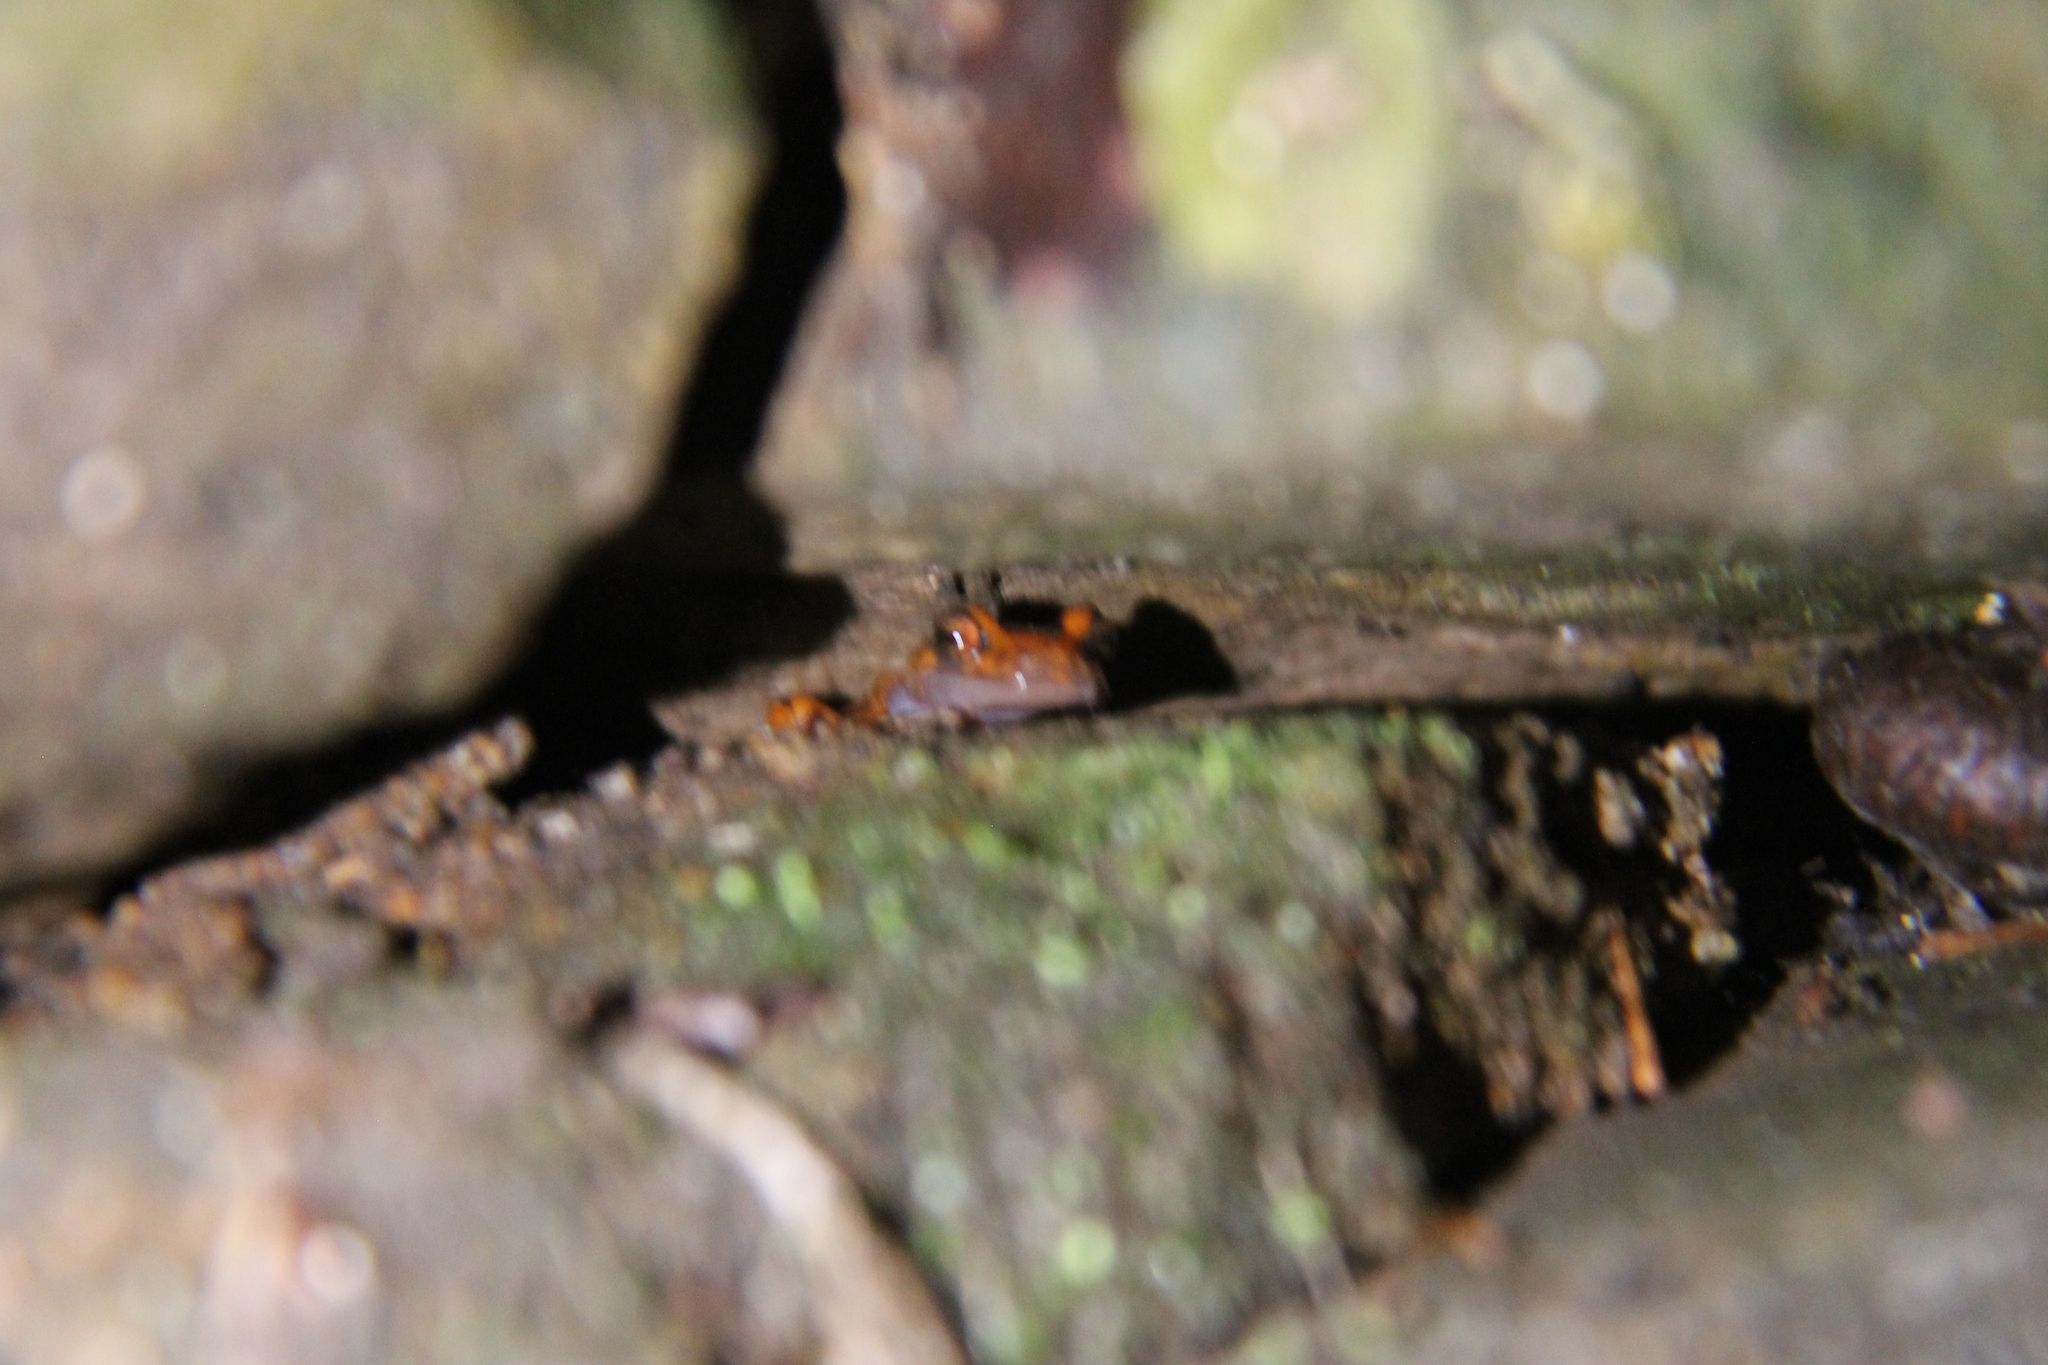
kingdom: Animalia
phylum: Chordata
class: Amphibia
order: Caudata
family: Plethodontidae
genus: Eurycea
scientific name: Eurycea lucifuga
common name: Cave salamander
